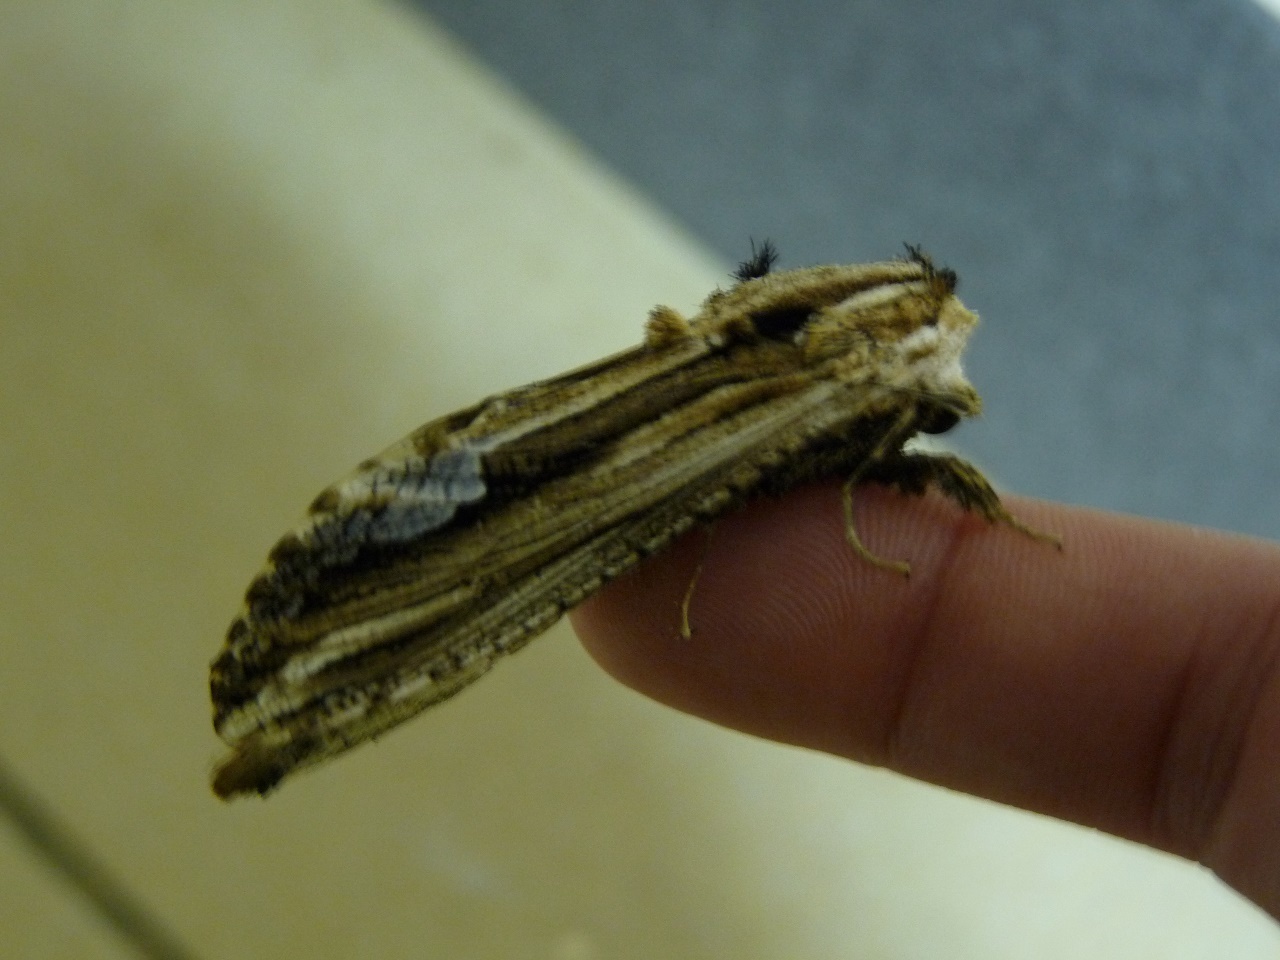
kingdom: Animalia
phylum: Arthropoda
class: Insecta
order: Lepidoptera
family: Cossidae
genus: Duomitus
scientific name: Duomitus ceramicus
